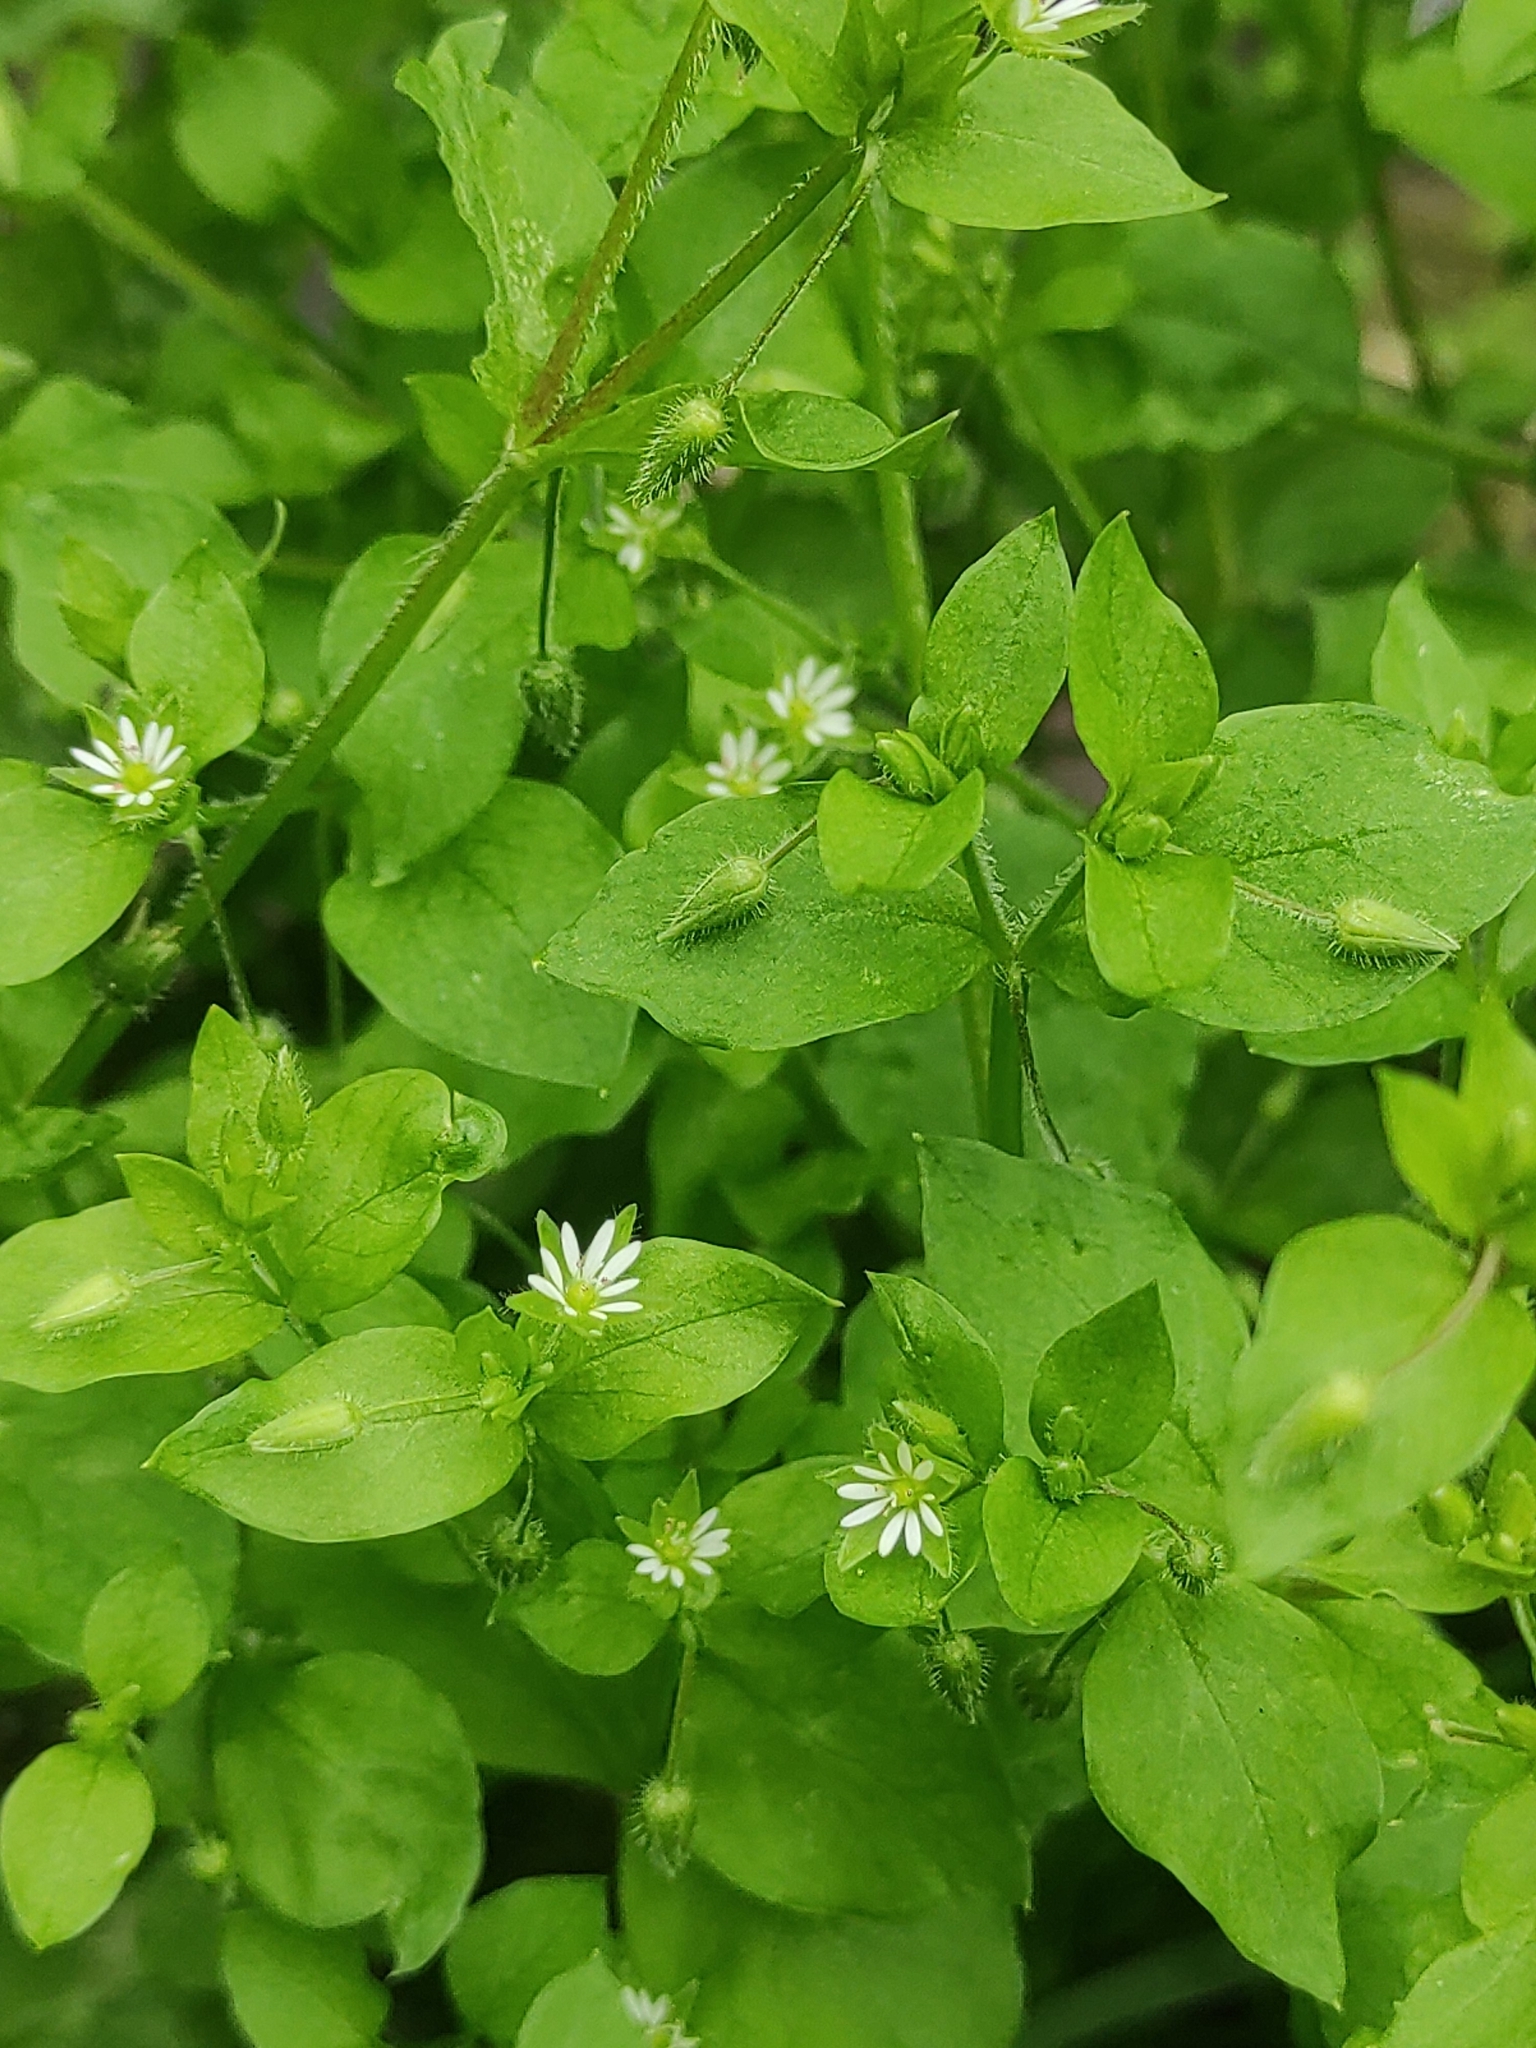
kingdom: Plantae
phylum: Tracheophyta
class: Magnoliopsida
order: Caryophyllales
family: Caryophyllaceae
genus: Stellaria
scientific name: Stellaria media
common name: Common chickweed
